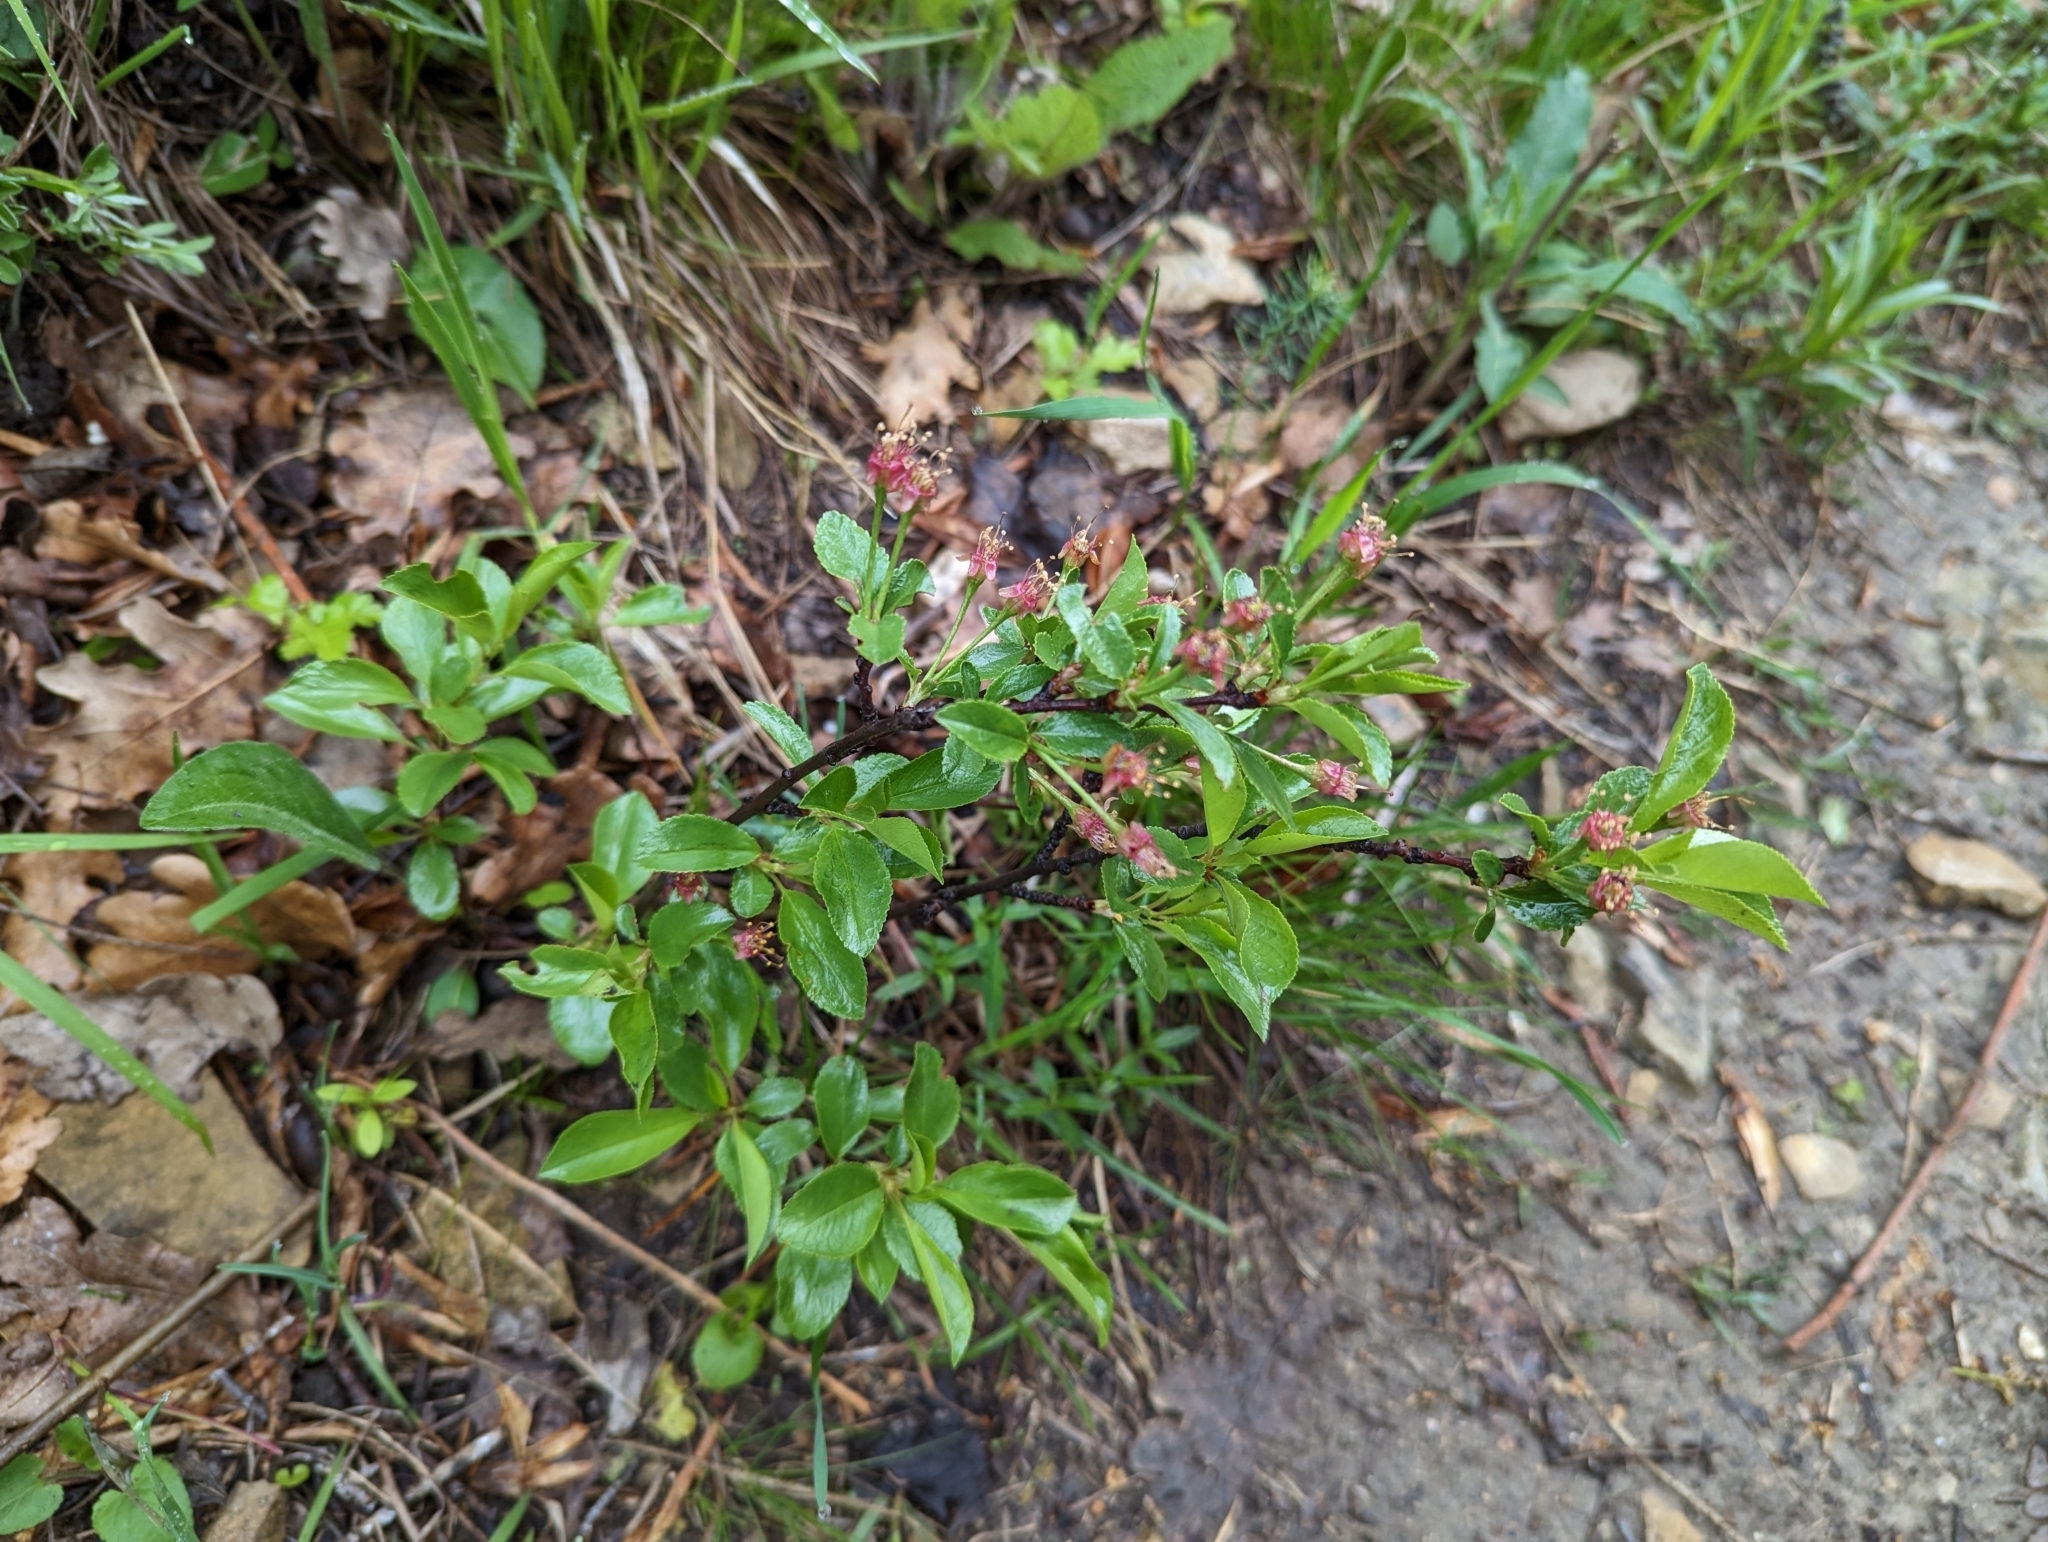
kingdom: Plantae
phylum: Tracheophyta
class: Magnoliopsida
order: Rosales
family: Rosaceae
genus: Prunus
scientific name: Prunus fruticosa
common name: European dwarf cherry
